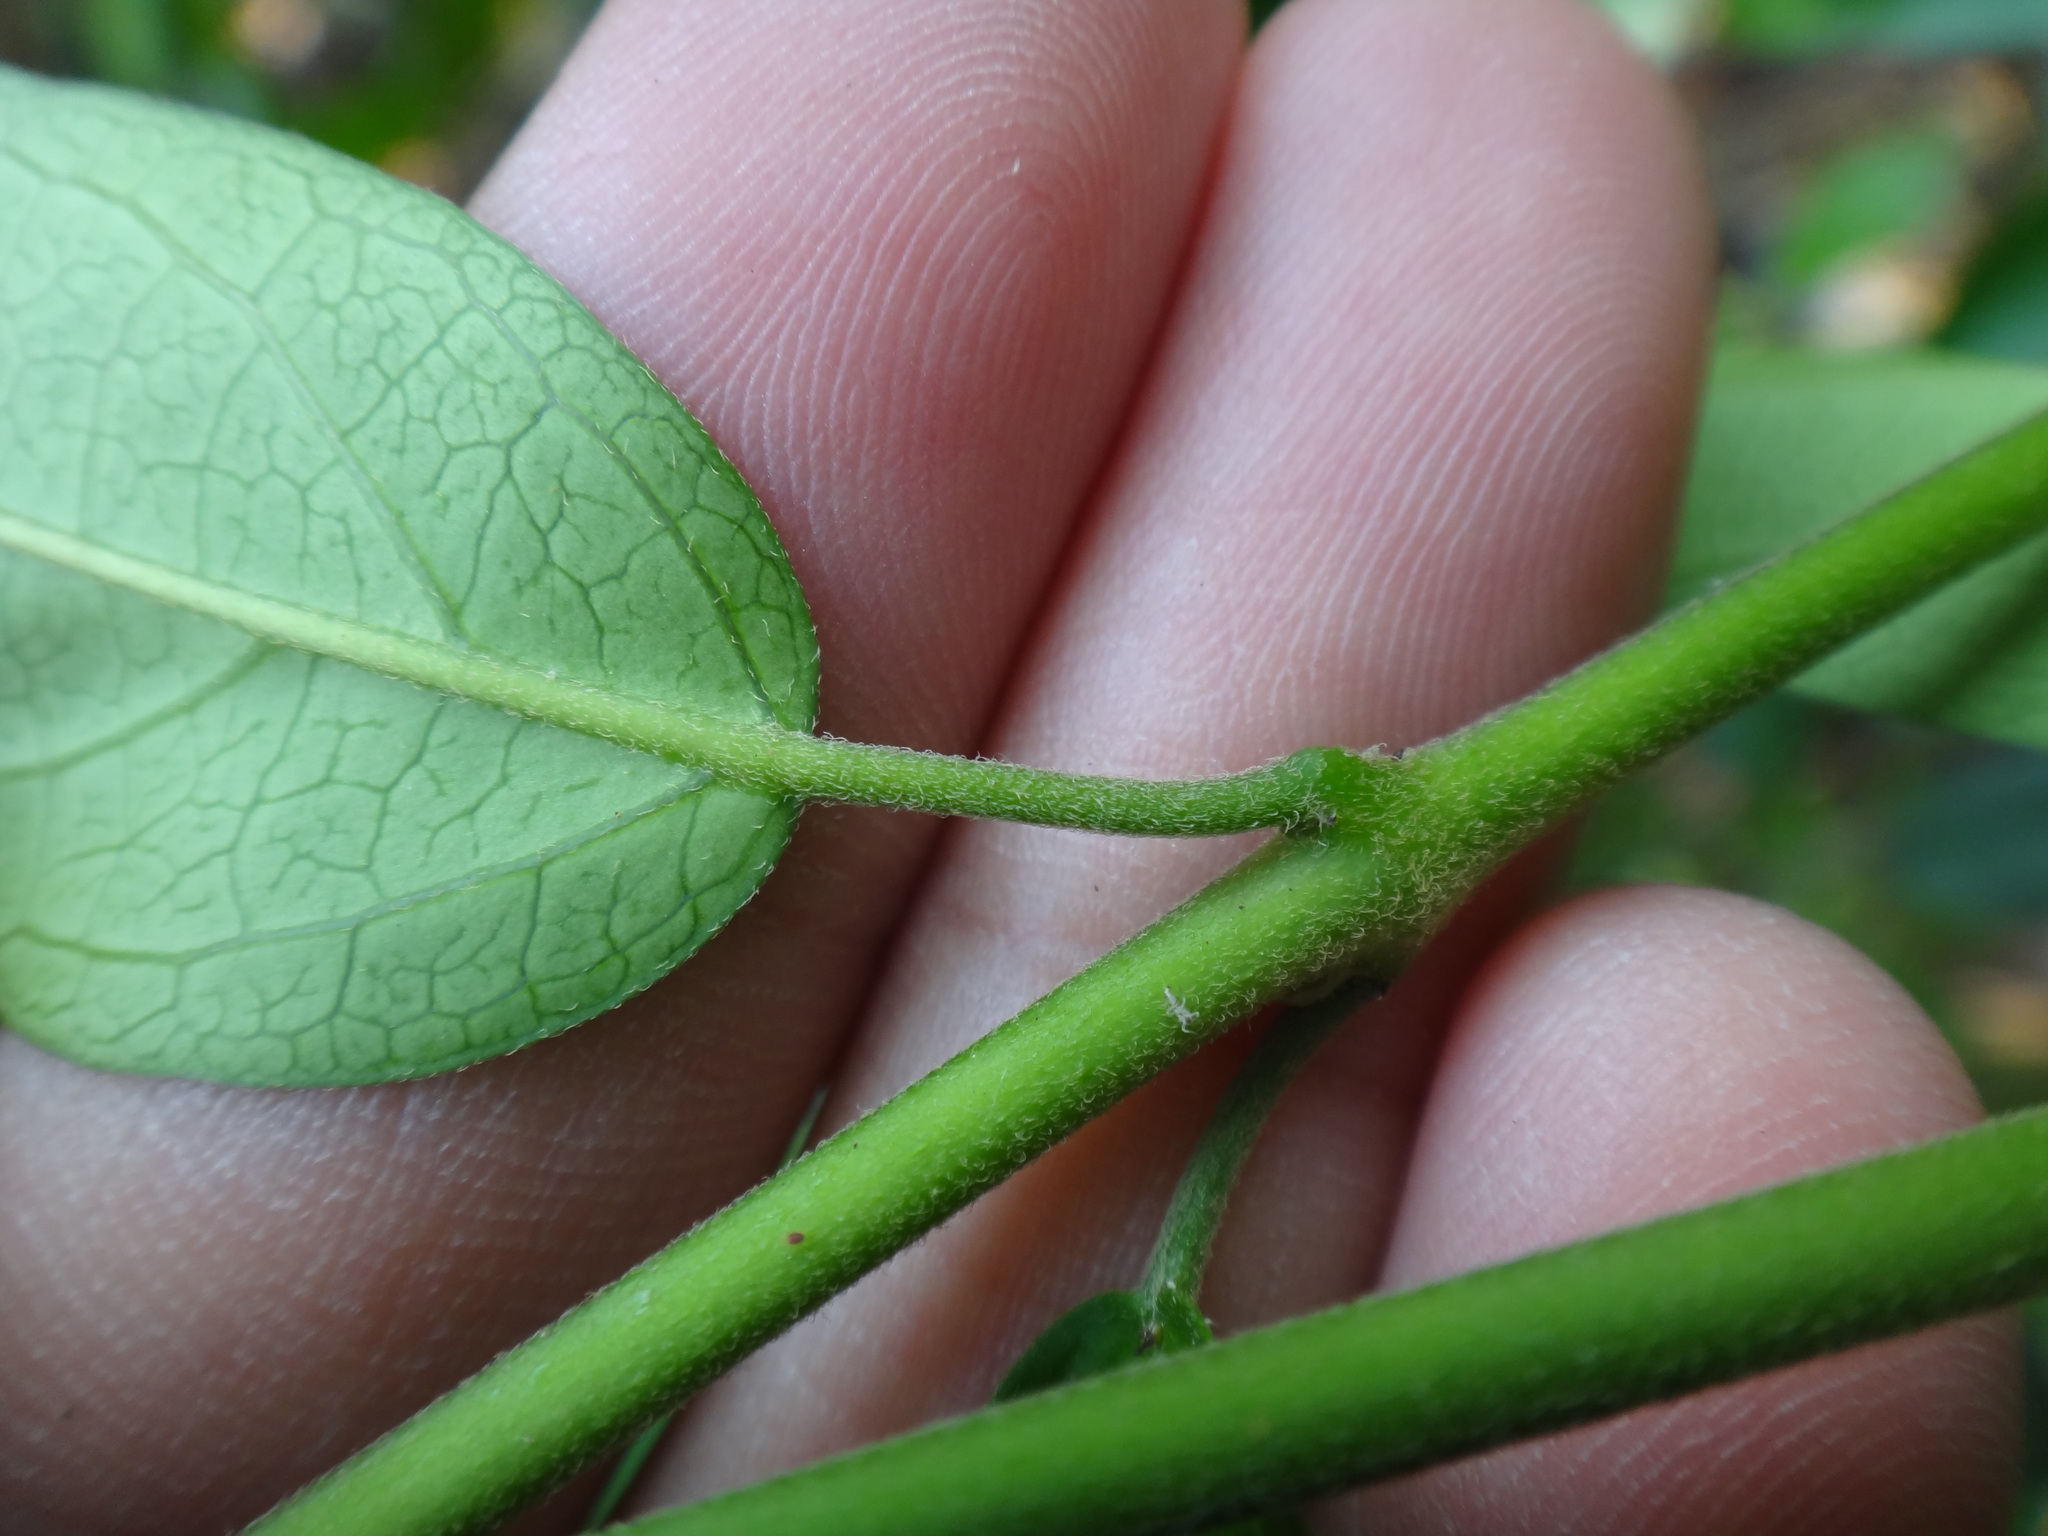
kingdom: Plantae
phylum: Tracheophyta
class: Magnoliopsida
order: Gentianales
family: Apocynaceae
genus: Marsdenia
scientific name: Marsdenia tinctoria
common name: Climbing-indigo
